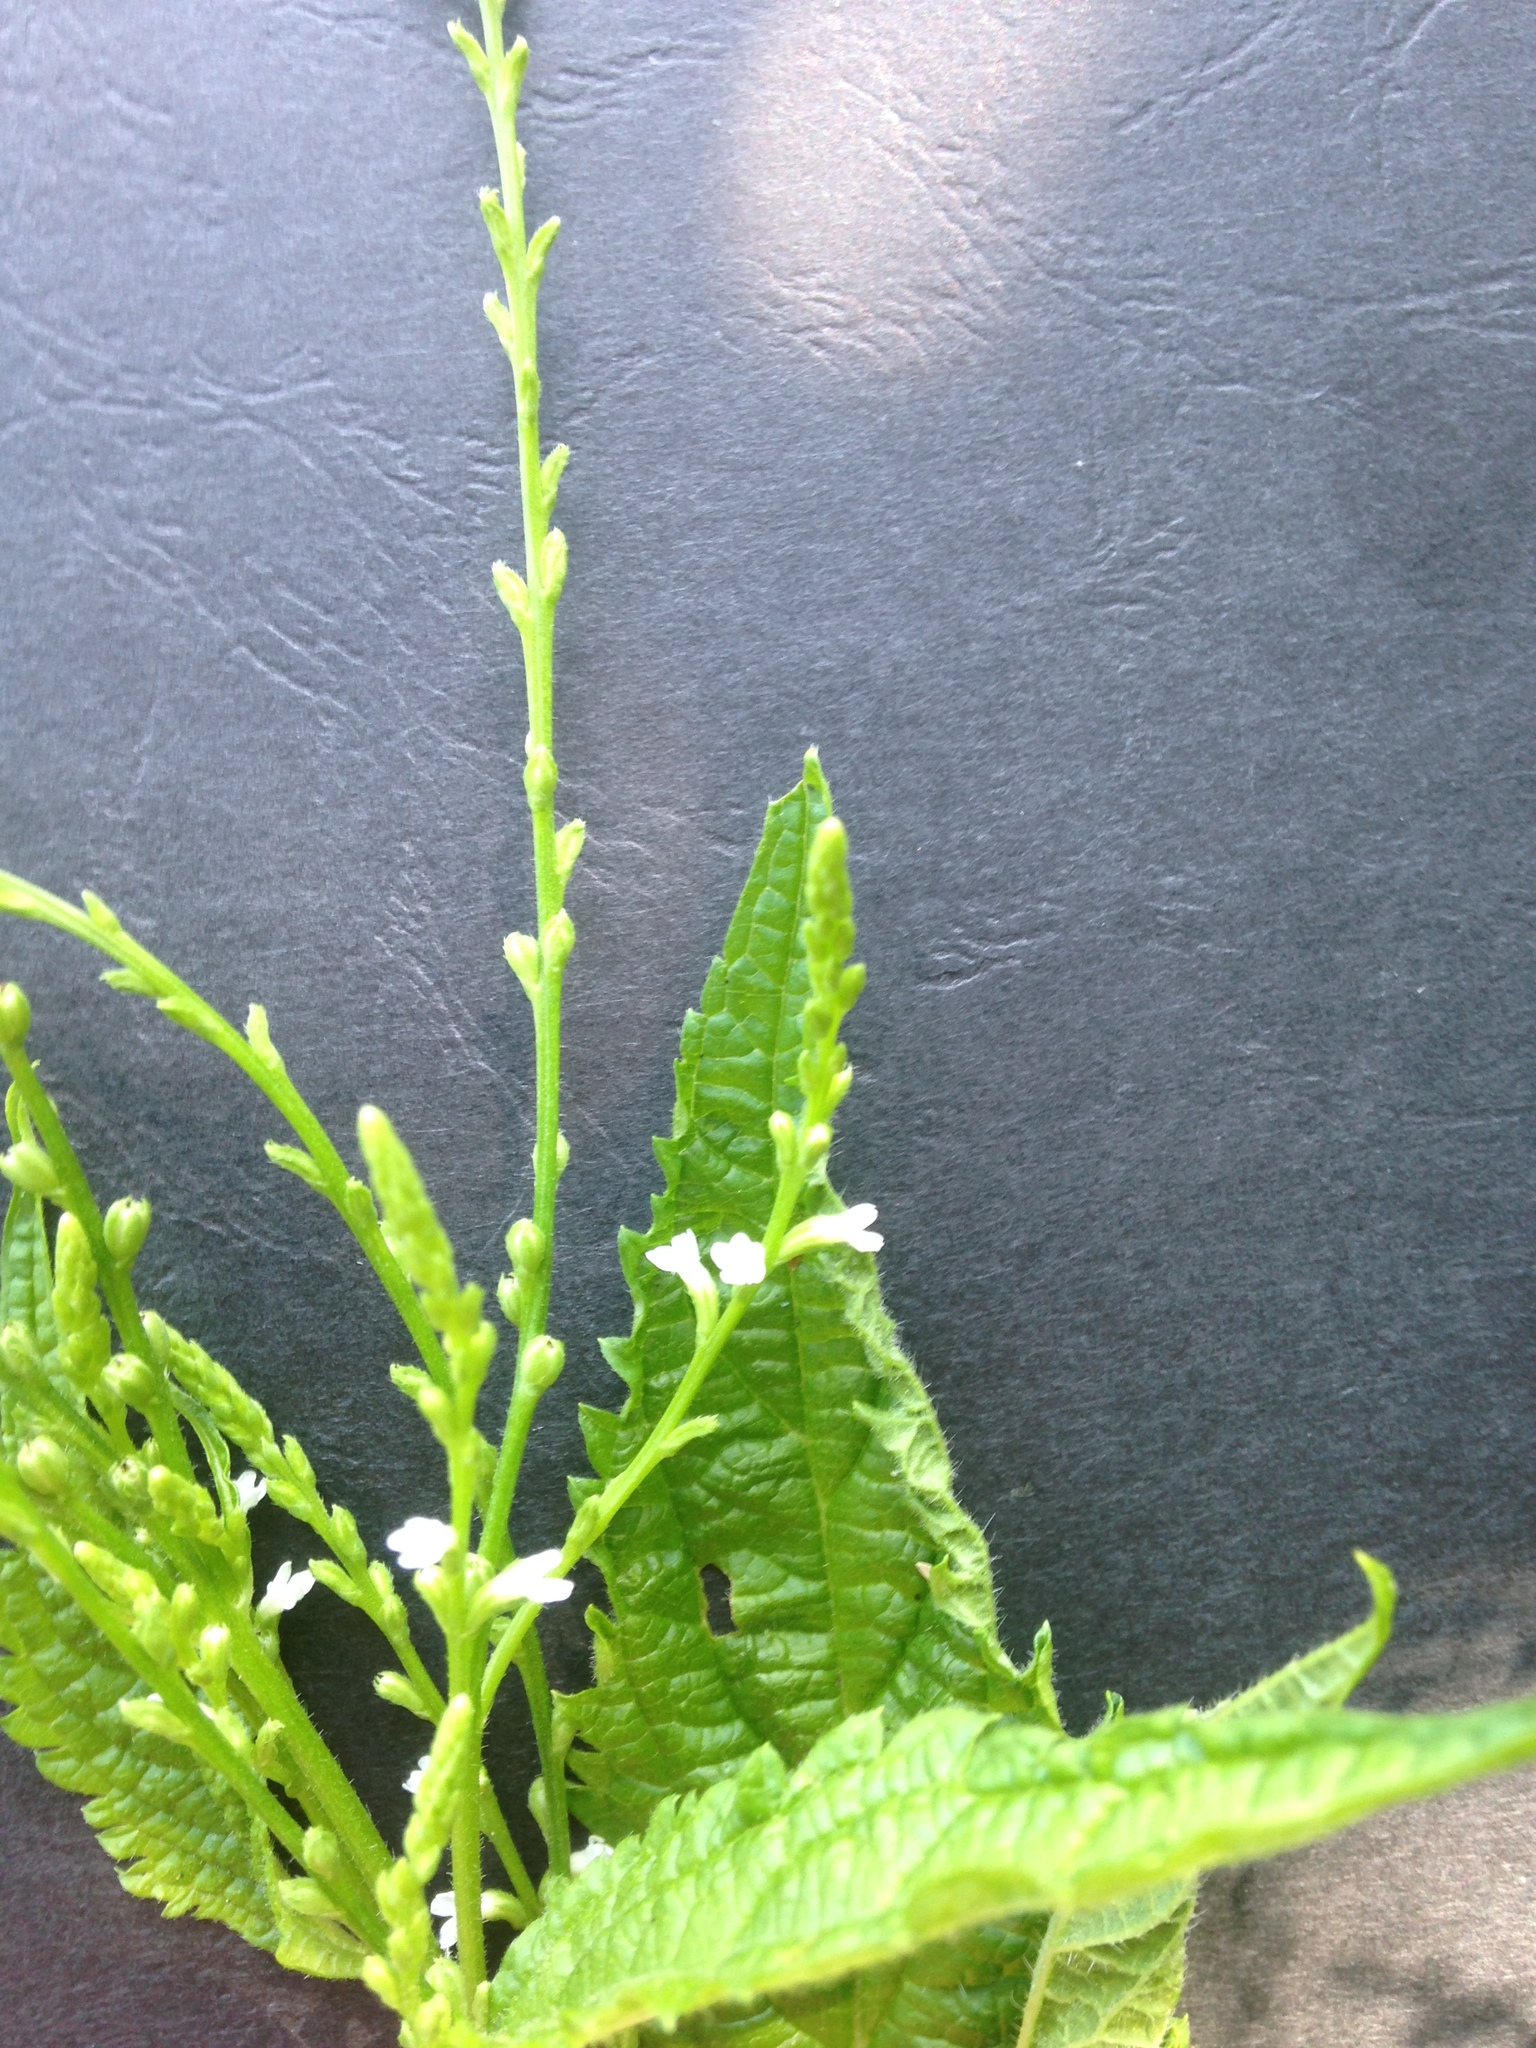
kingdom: Plantae
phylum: Tracheophyta
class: Magnoliopsida
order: Lamiales
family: Verbenaceae
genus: Verbena
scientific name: Verbena urticifolia
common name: Nettle-leaved vervain
